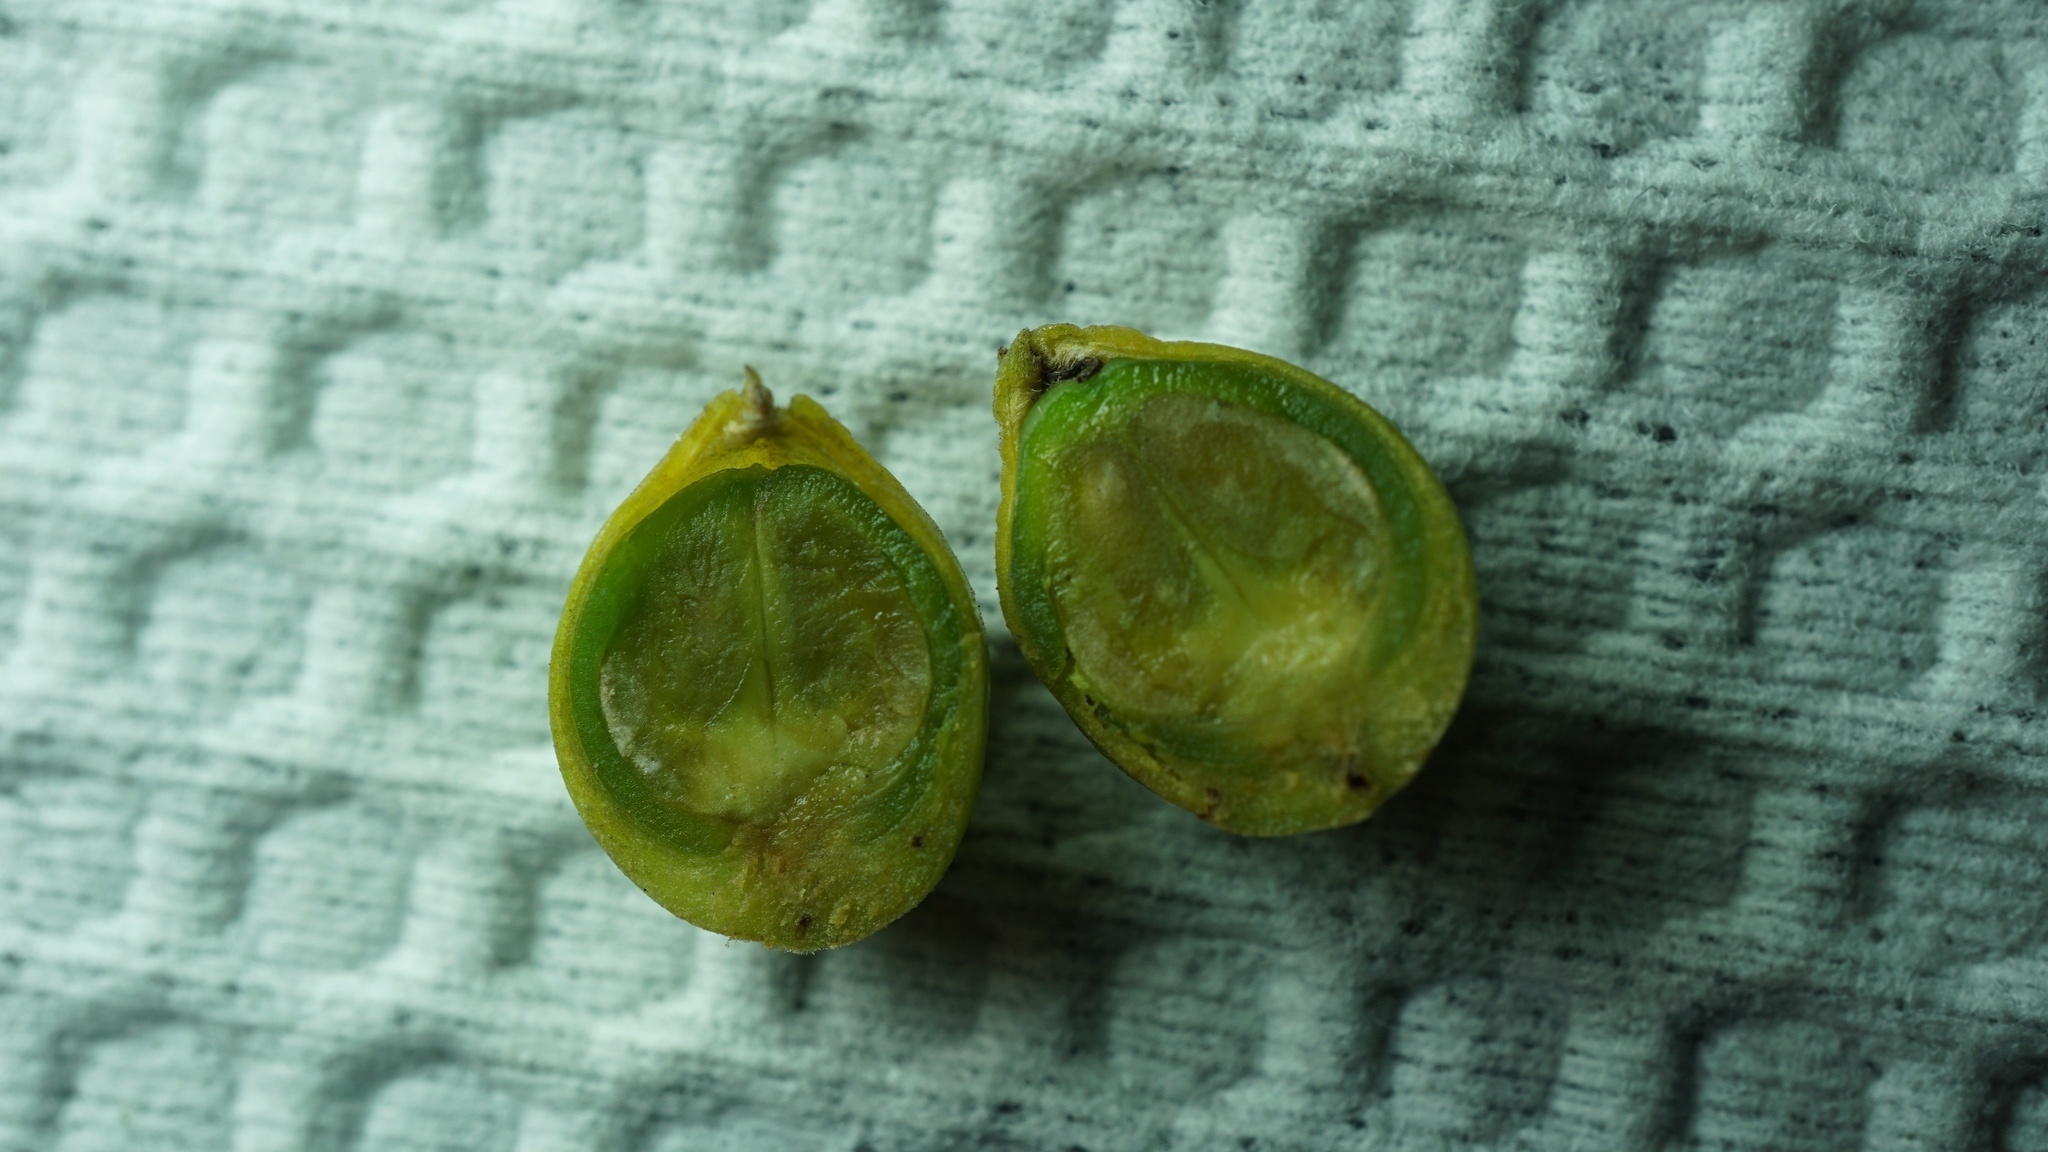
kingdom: Plantae
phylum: Tracheophyta
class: Magnoliopsida
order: Lamiales
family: Verbenaceae
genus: Duranta
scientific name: Duranta mutisii
